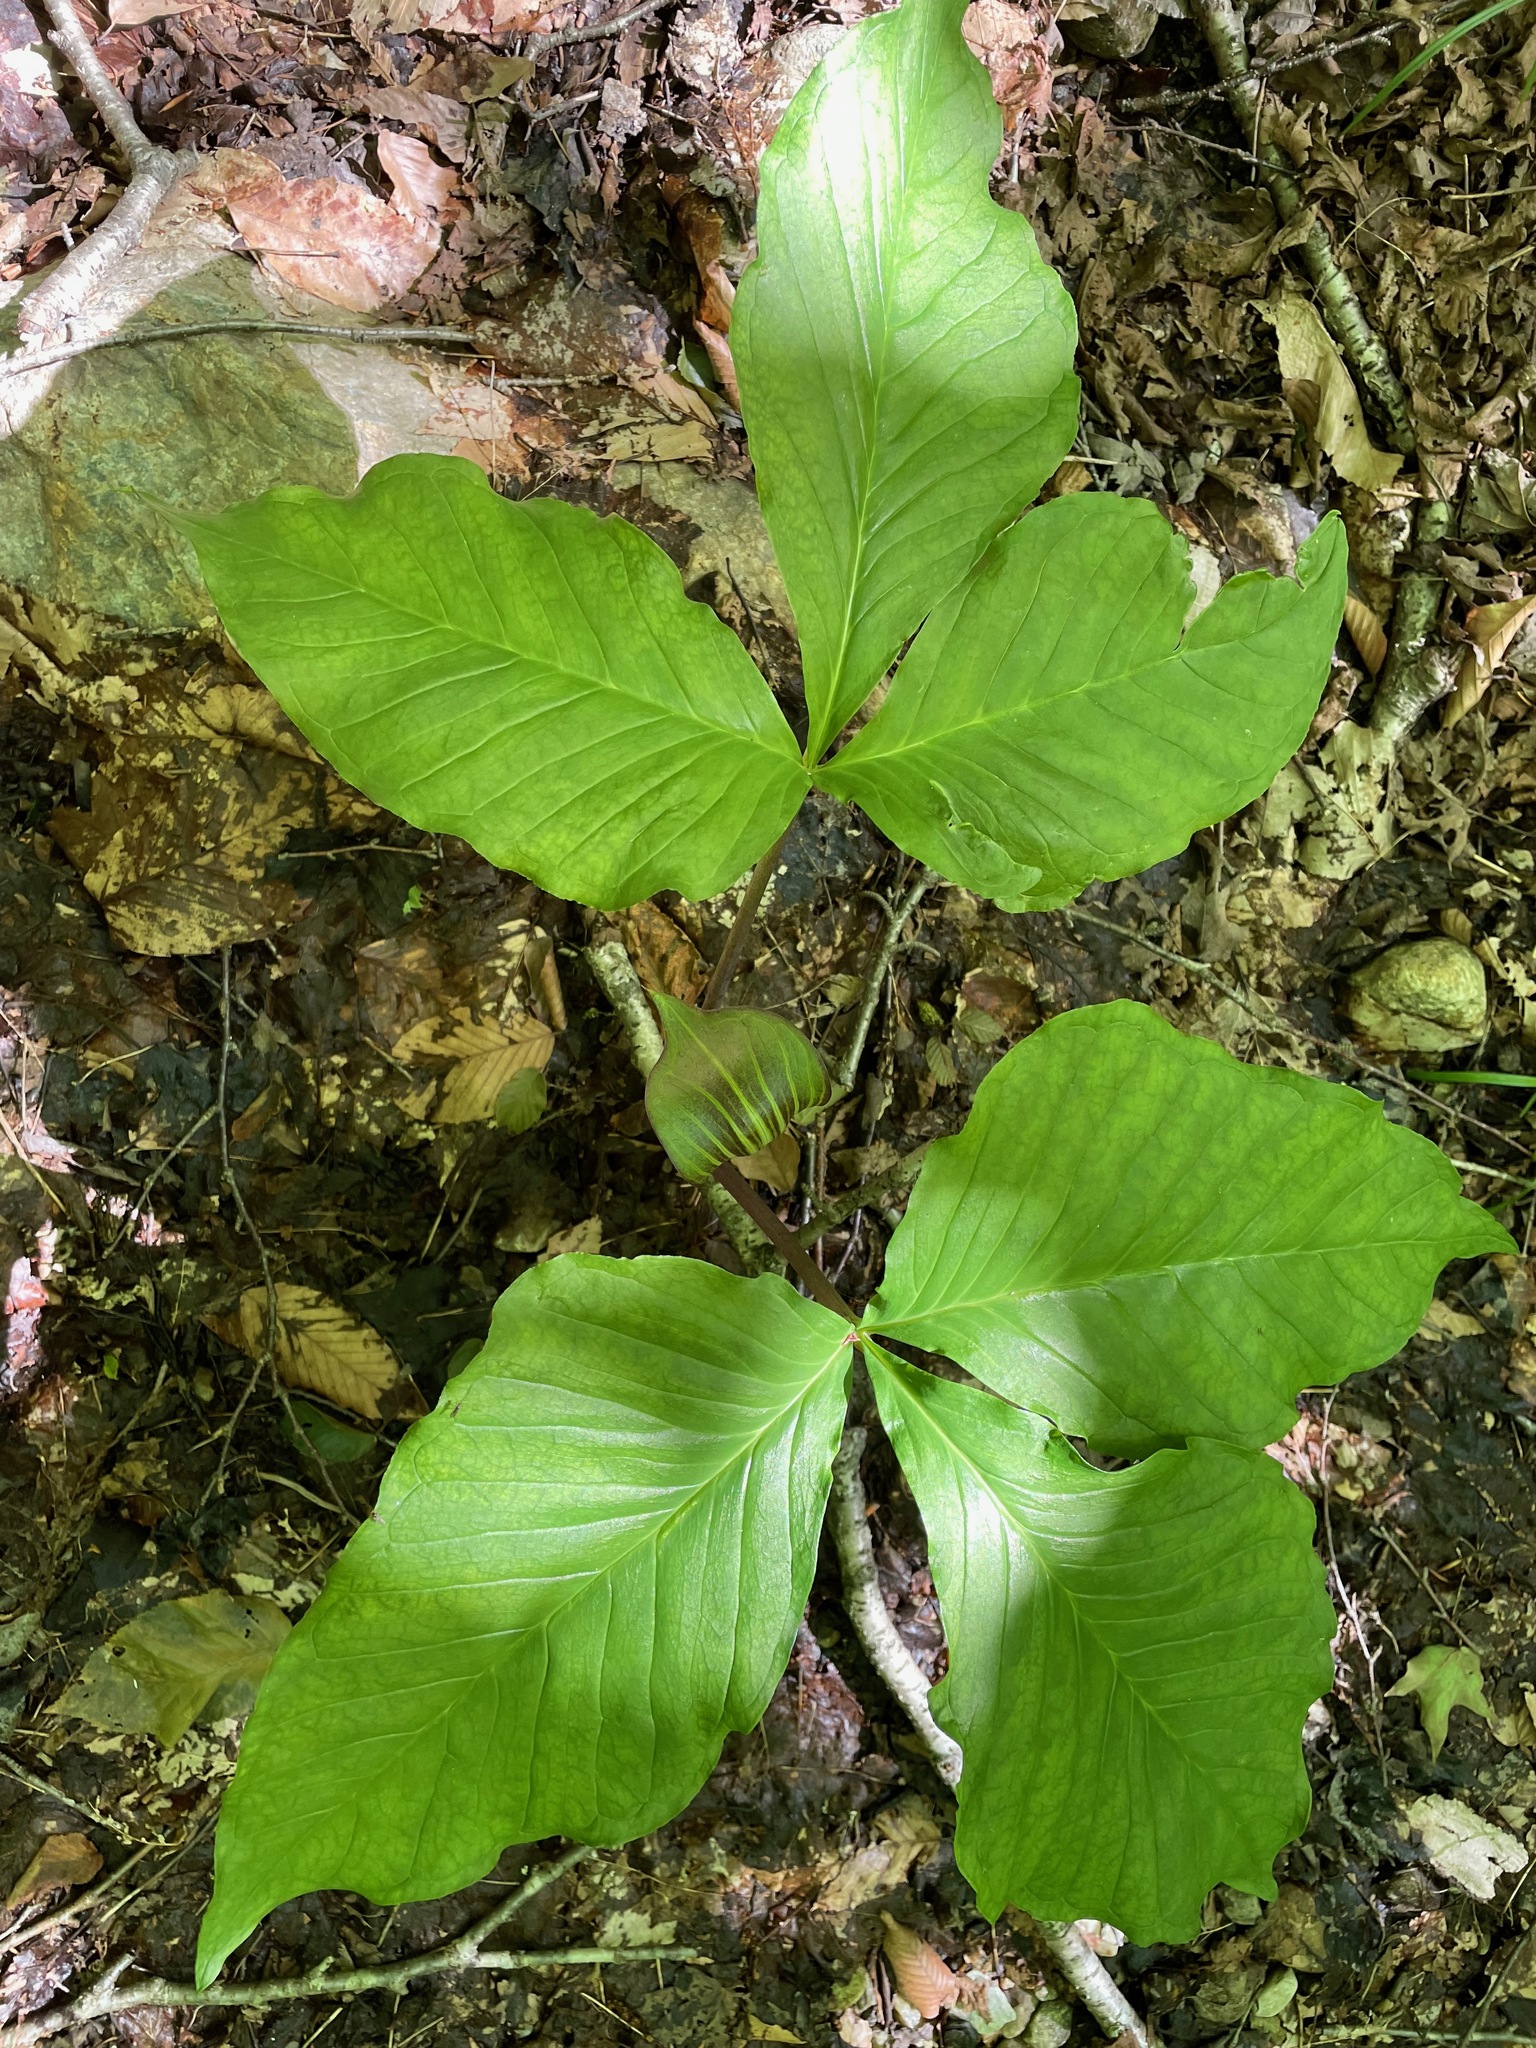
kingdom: Plantae
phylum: Tracheophyta
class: Liliopsida
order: Alismatales
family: Araceae
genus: Arisaema
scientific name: Arisaema triphyllum
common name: Jack-in-the-pulpit
